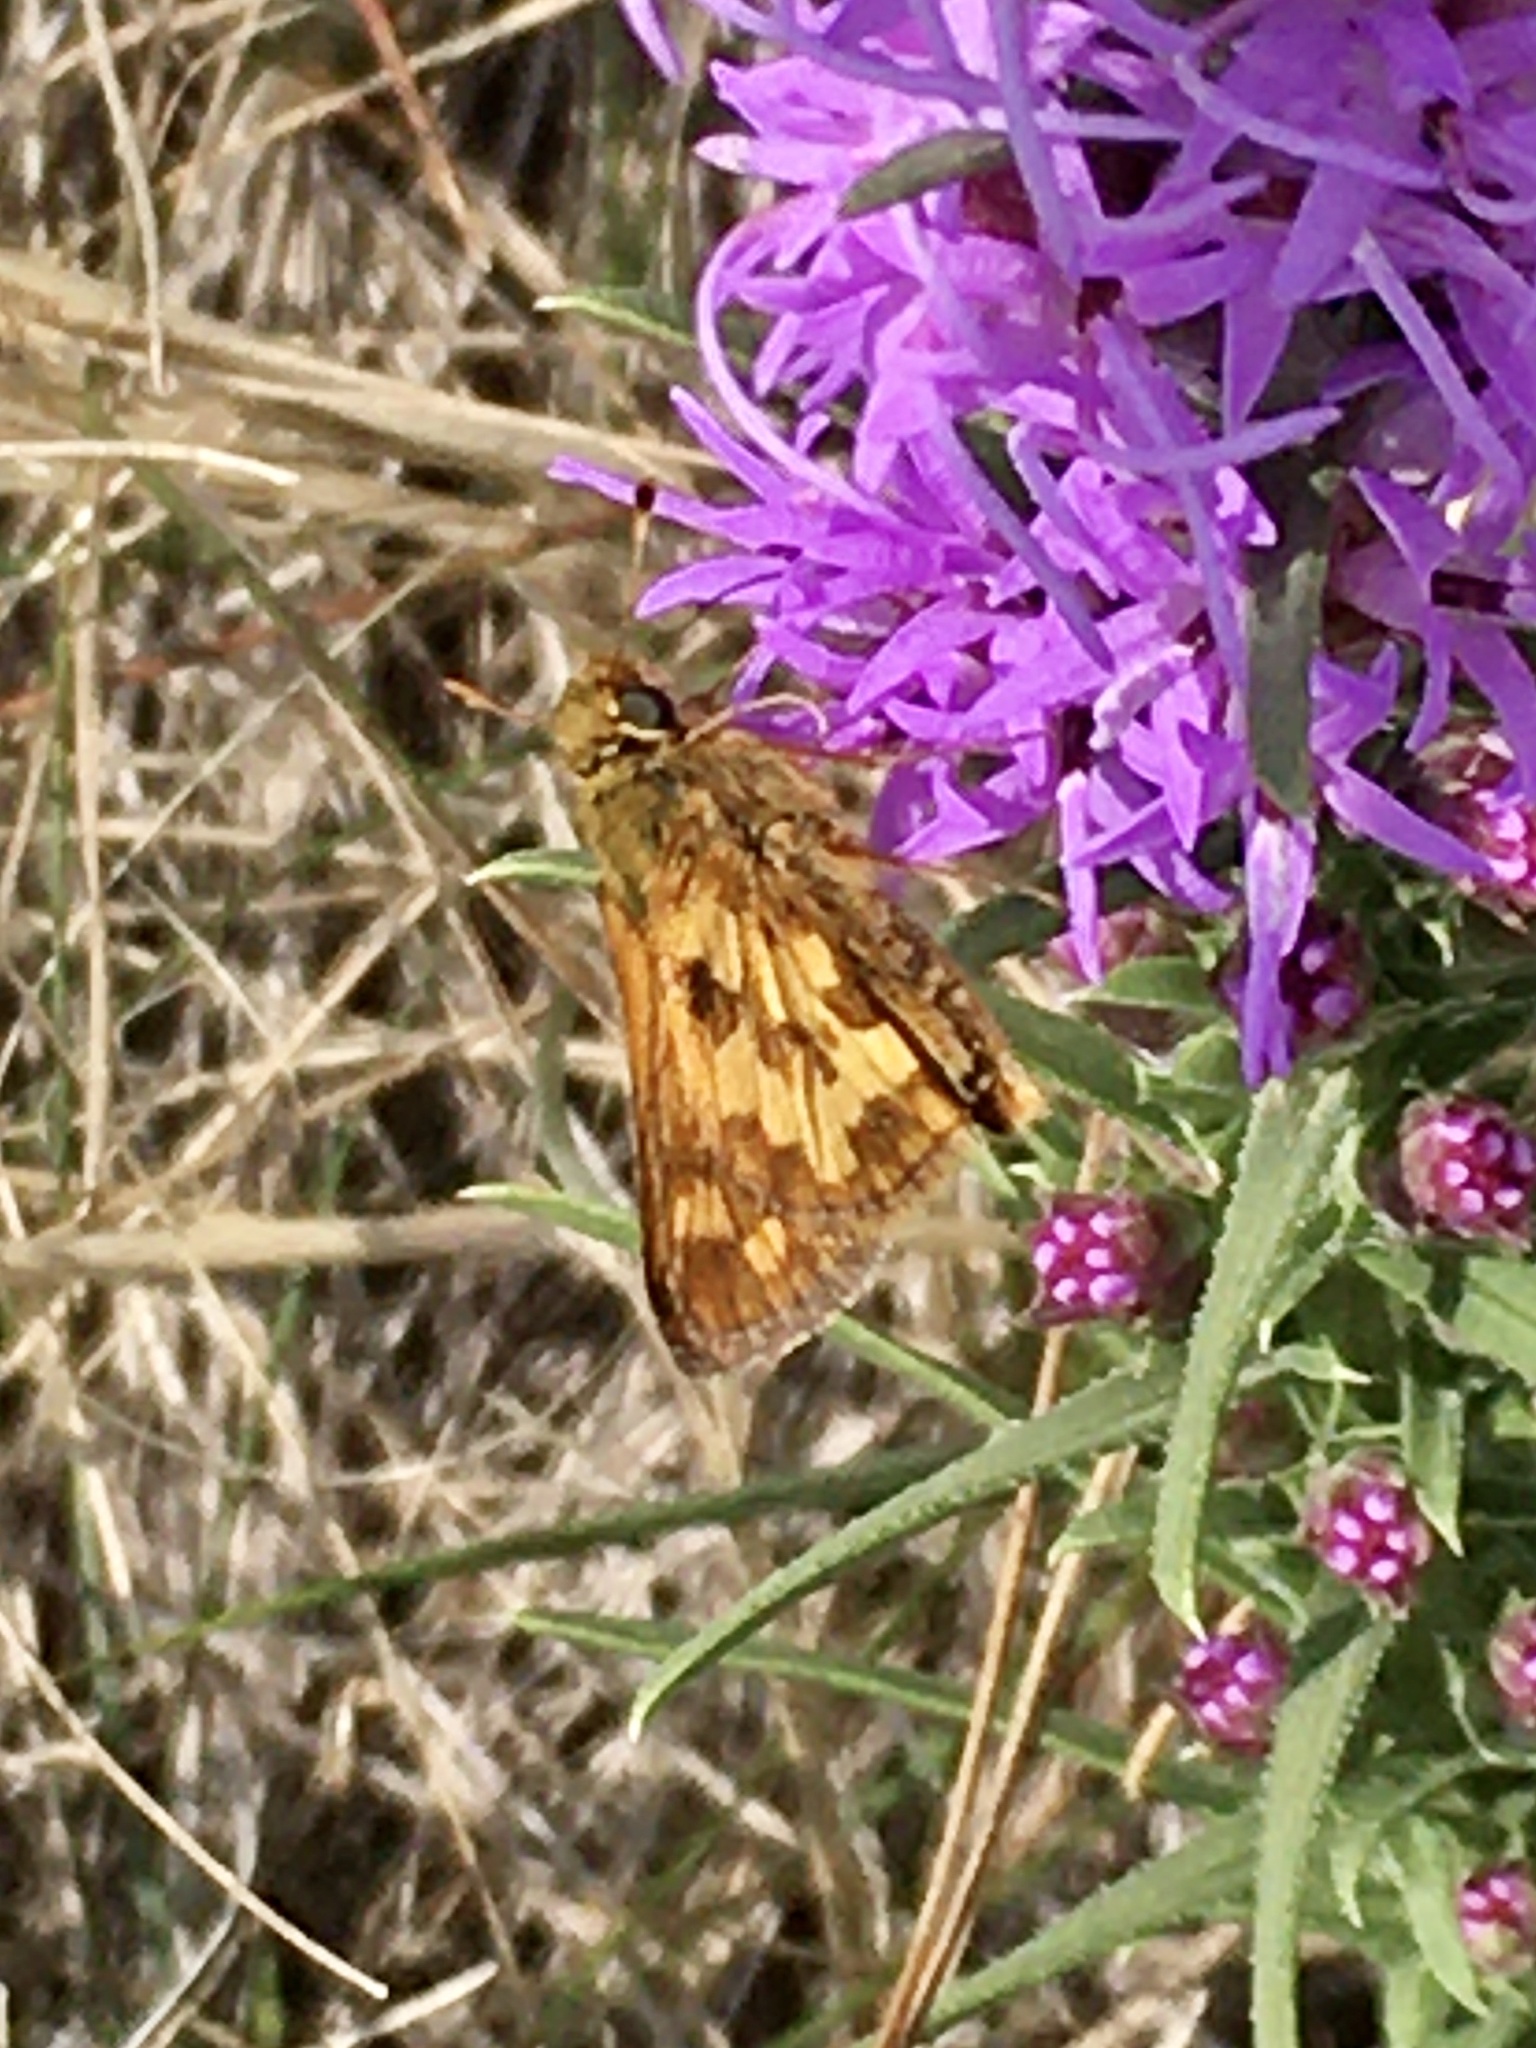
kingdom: Animalia
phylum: Arthropoda
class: Insecta
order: Lepidoptera
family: Hesperiidae
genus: Polites
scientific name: Polites coras
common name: Peck's skipper
